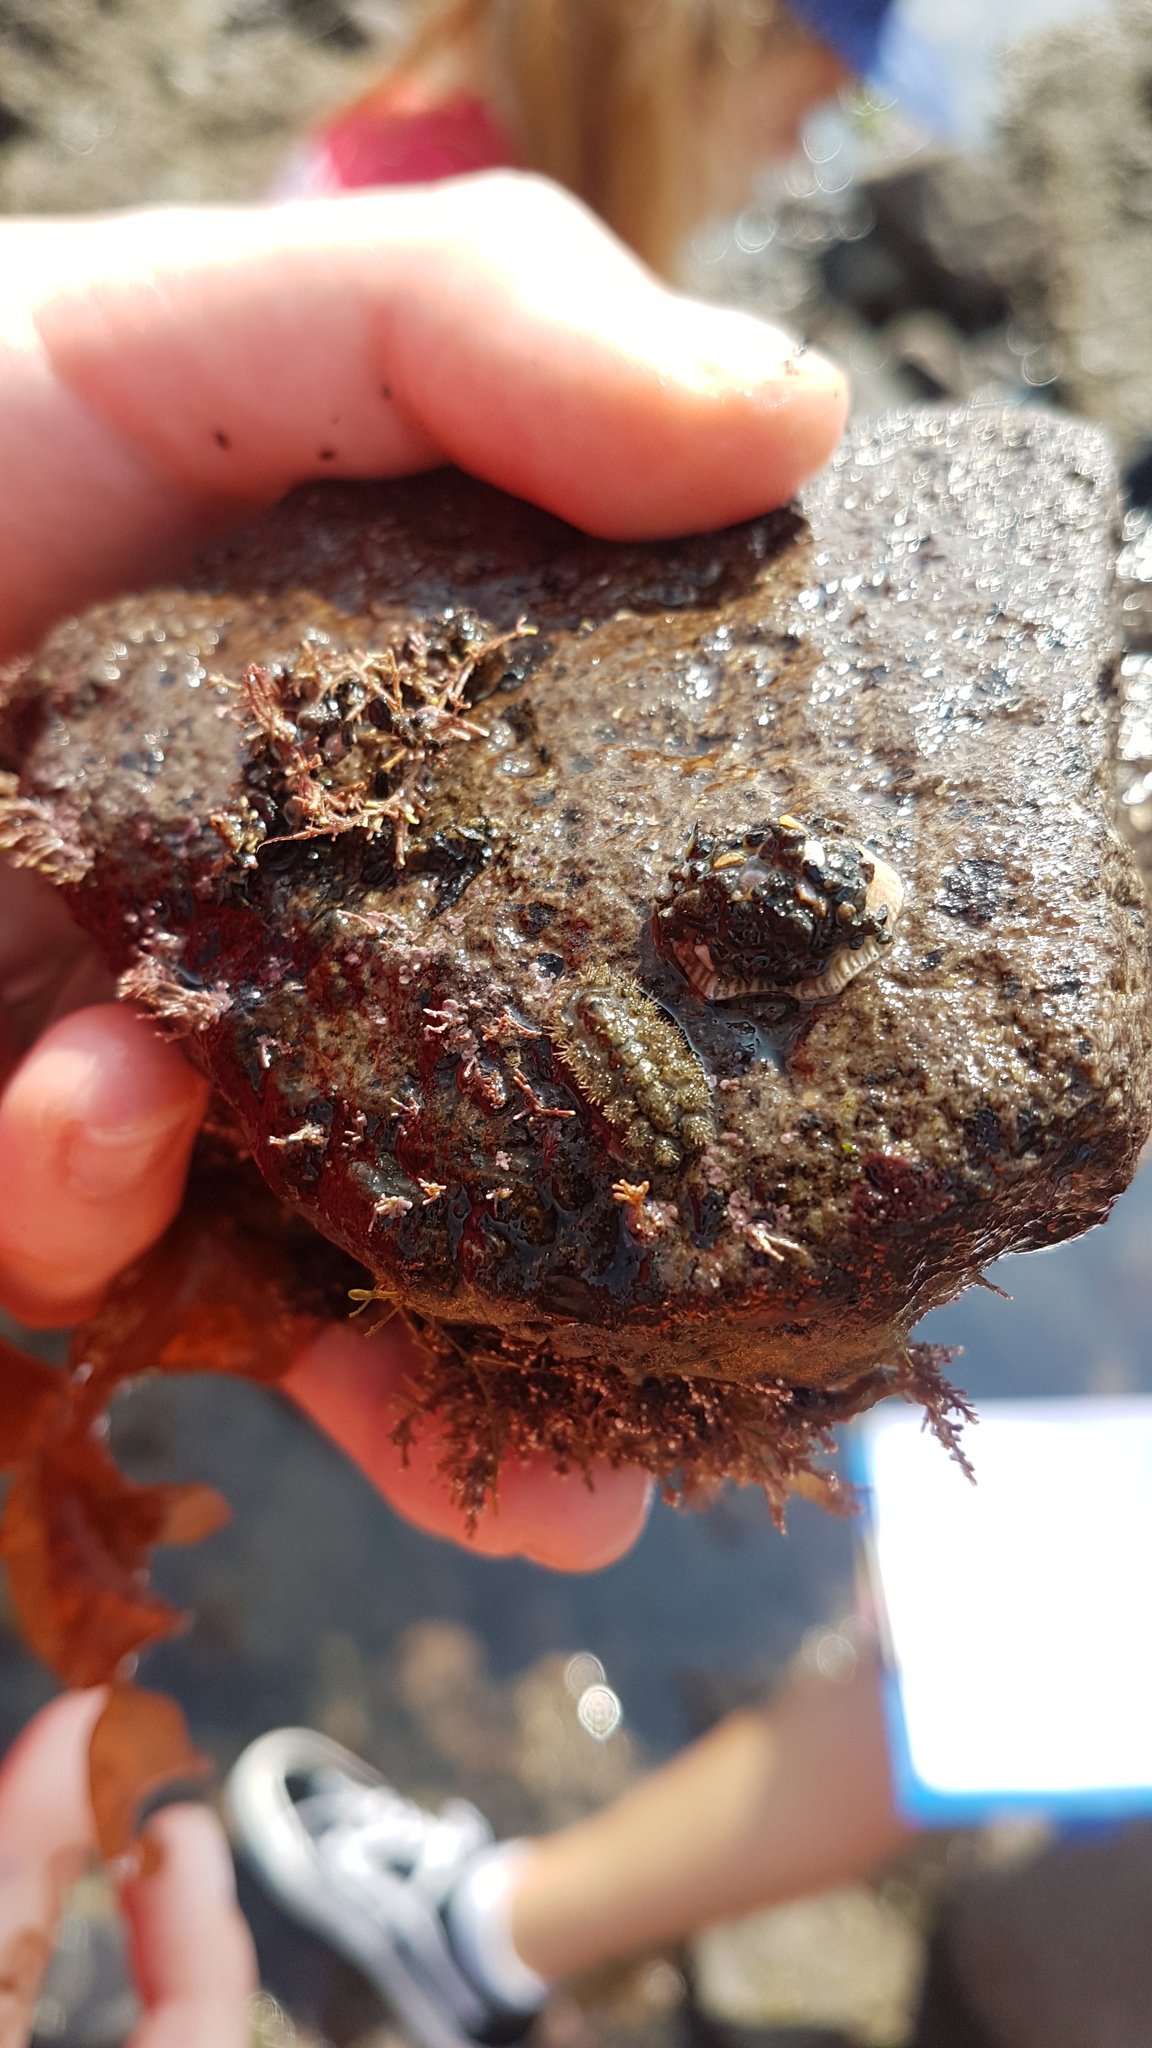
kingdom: Animalia
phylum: Cnidaria
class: Anthozoa
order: Actiniaria
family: Actiniidae
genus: Isactinia
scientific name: Isactinia olivacea
